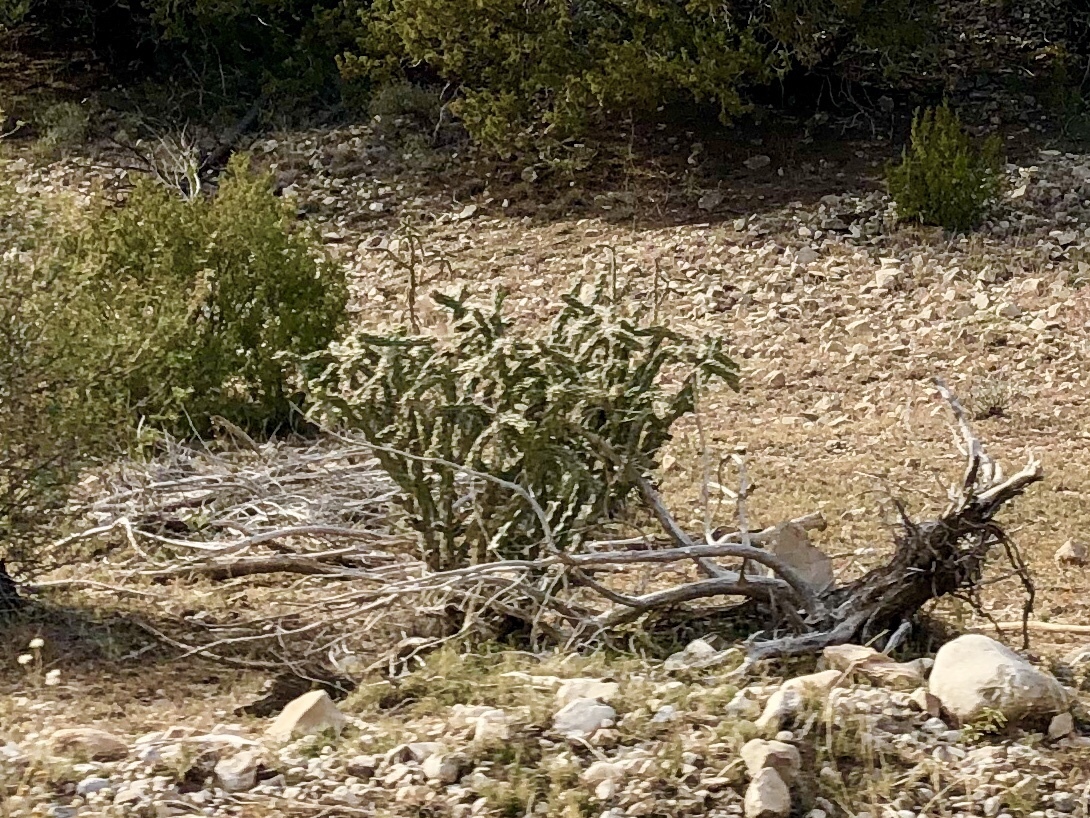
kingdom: Plantae
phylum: Tracheophyta
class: Magnoliopsida
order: Caryophyllales
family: Cactaceae
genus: Cylindropuntia
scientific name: Cylindropuntia imbricata
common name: Candelabrum cactus
